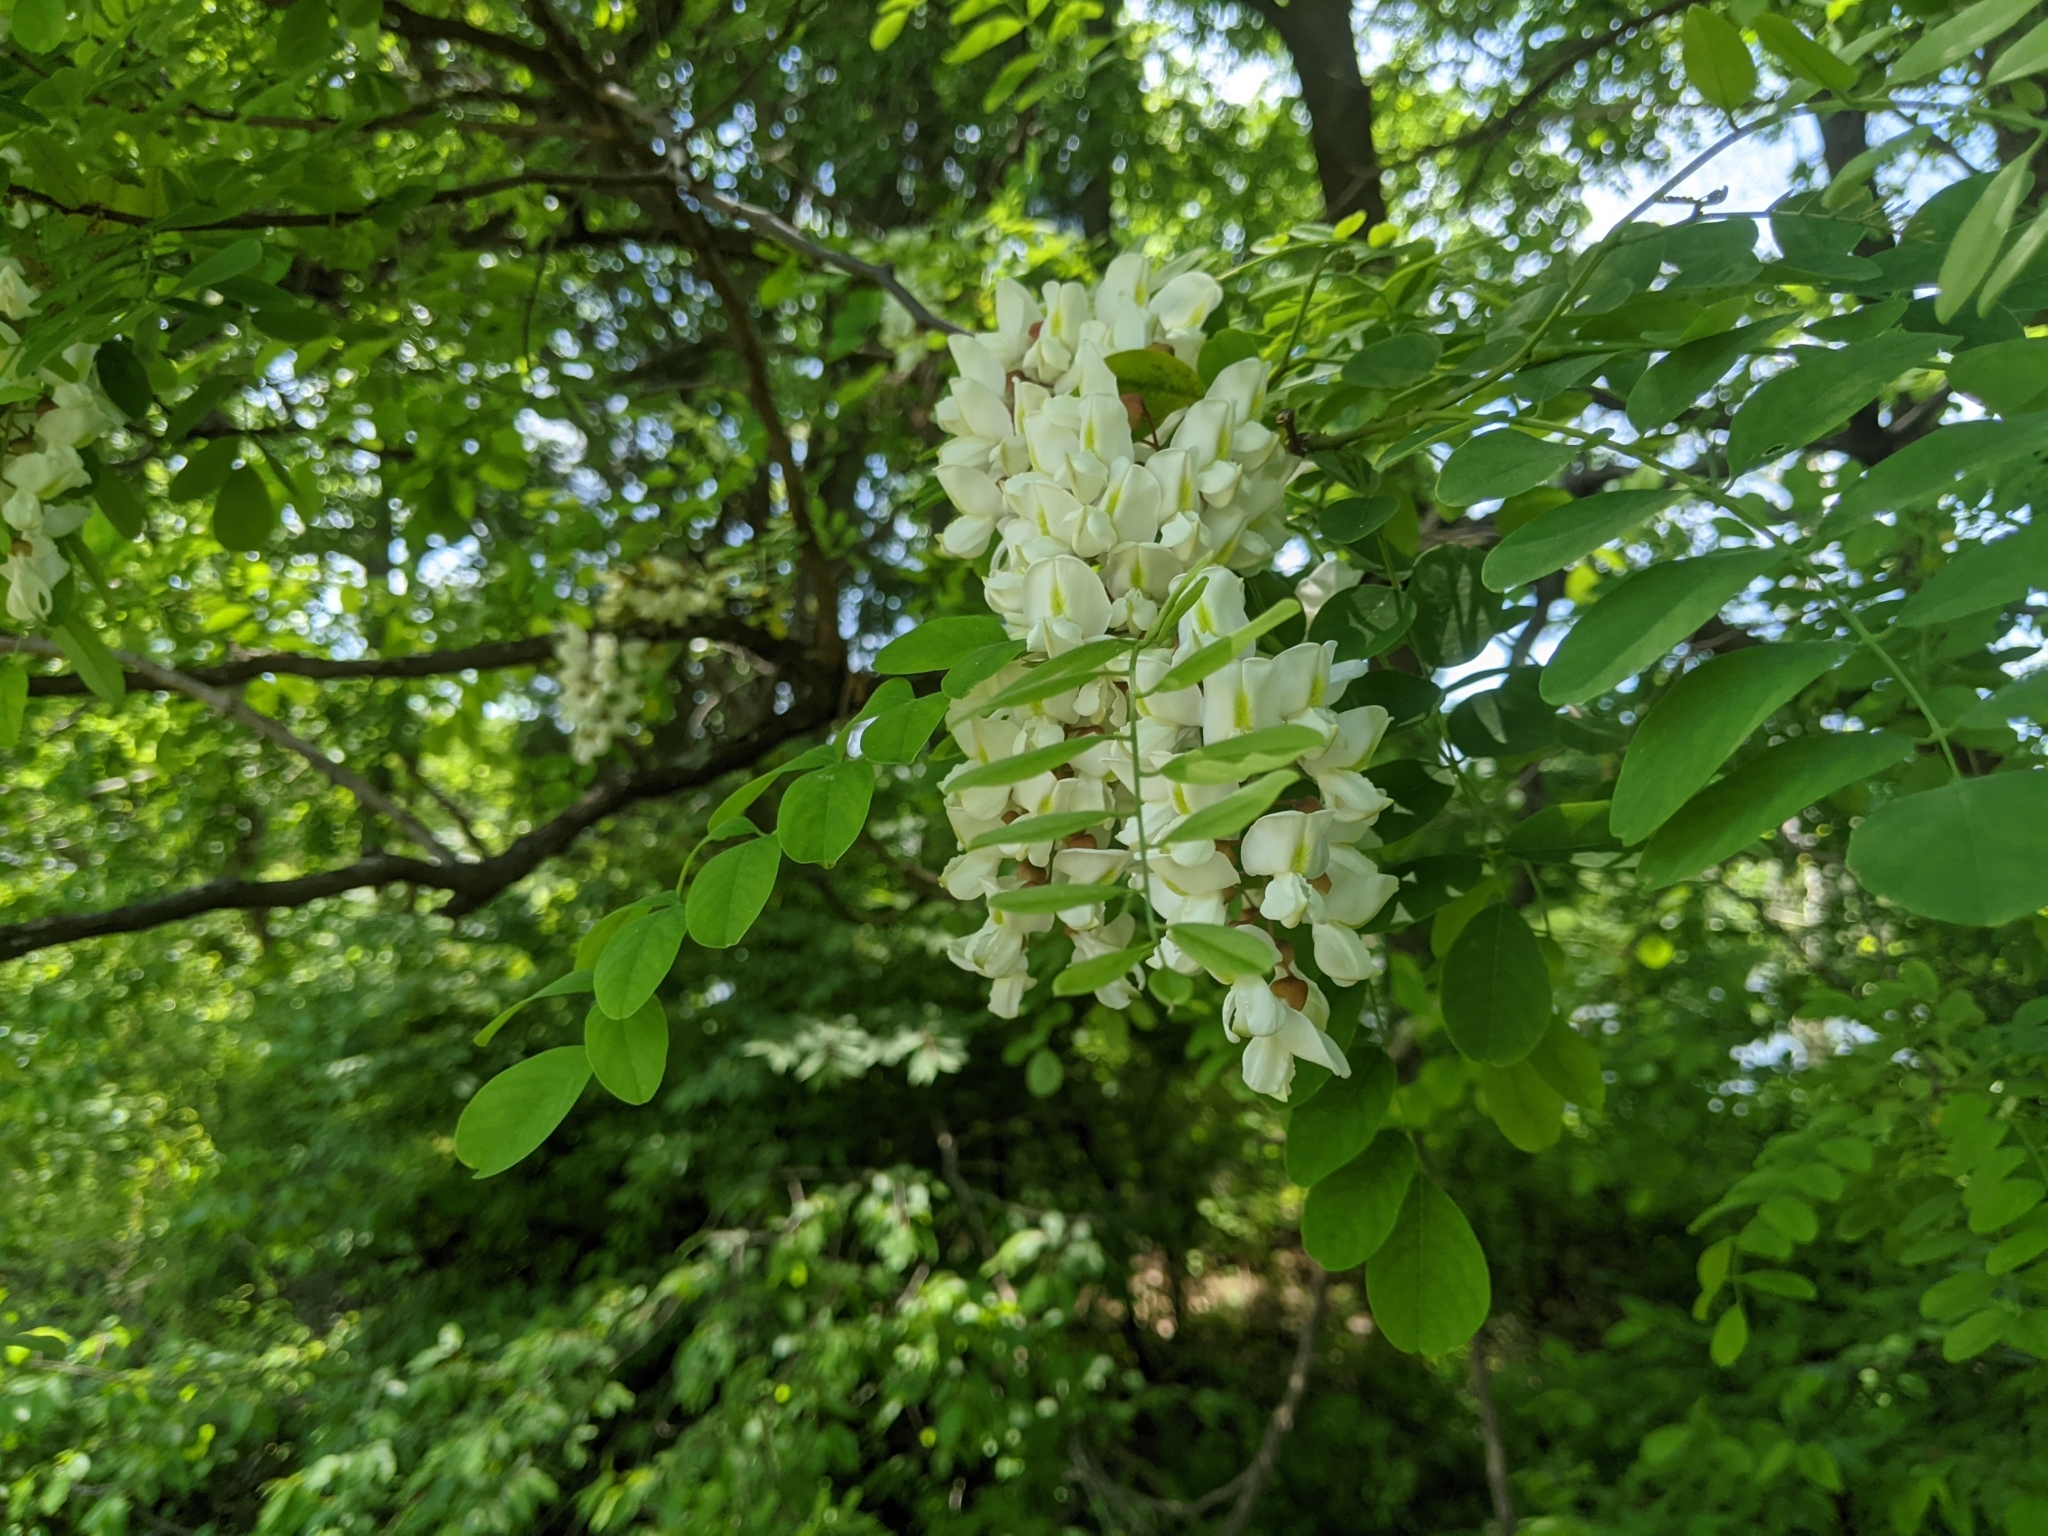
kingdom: Plantae
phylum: Tracheophyta
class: Magnoliopsida
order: Fabales
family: Fabaceae
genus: Robinia
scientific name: Robinia pseudoacacia
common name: Black locust
